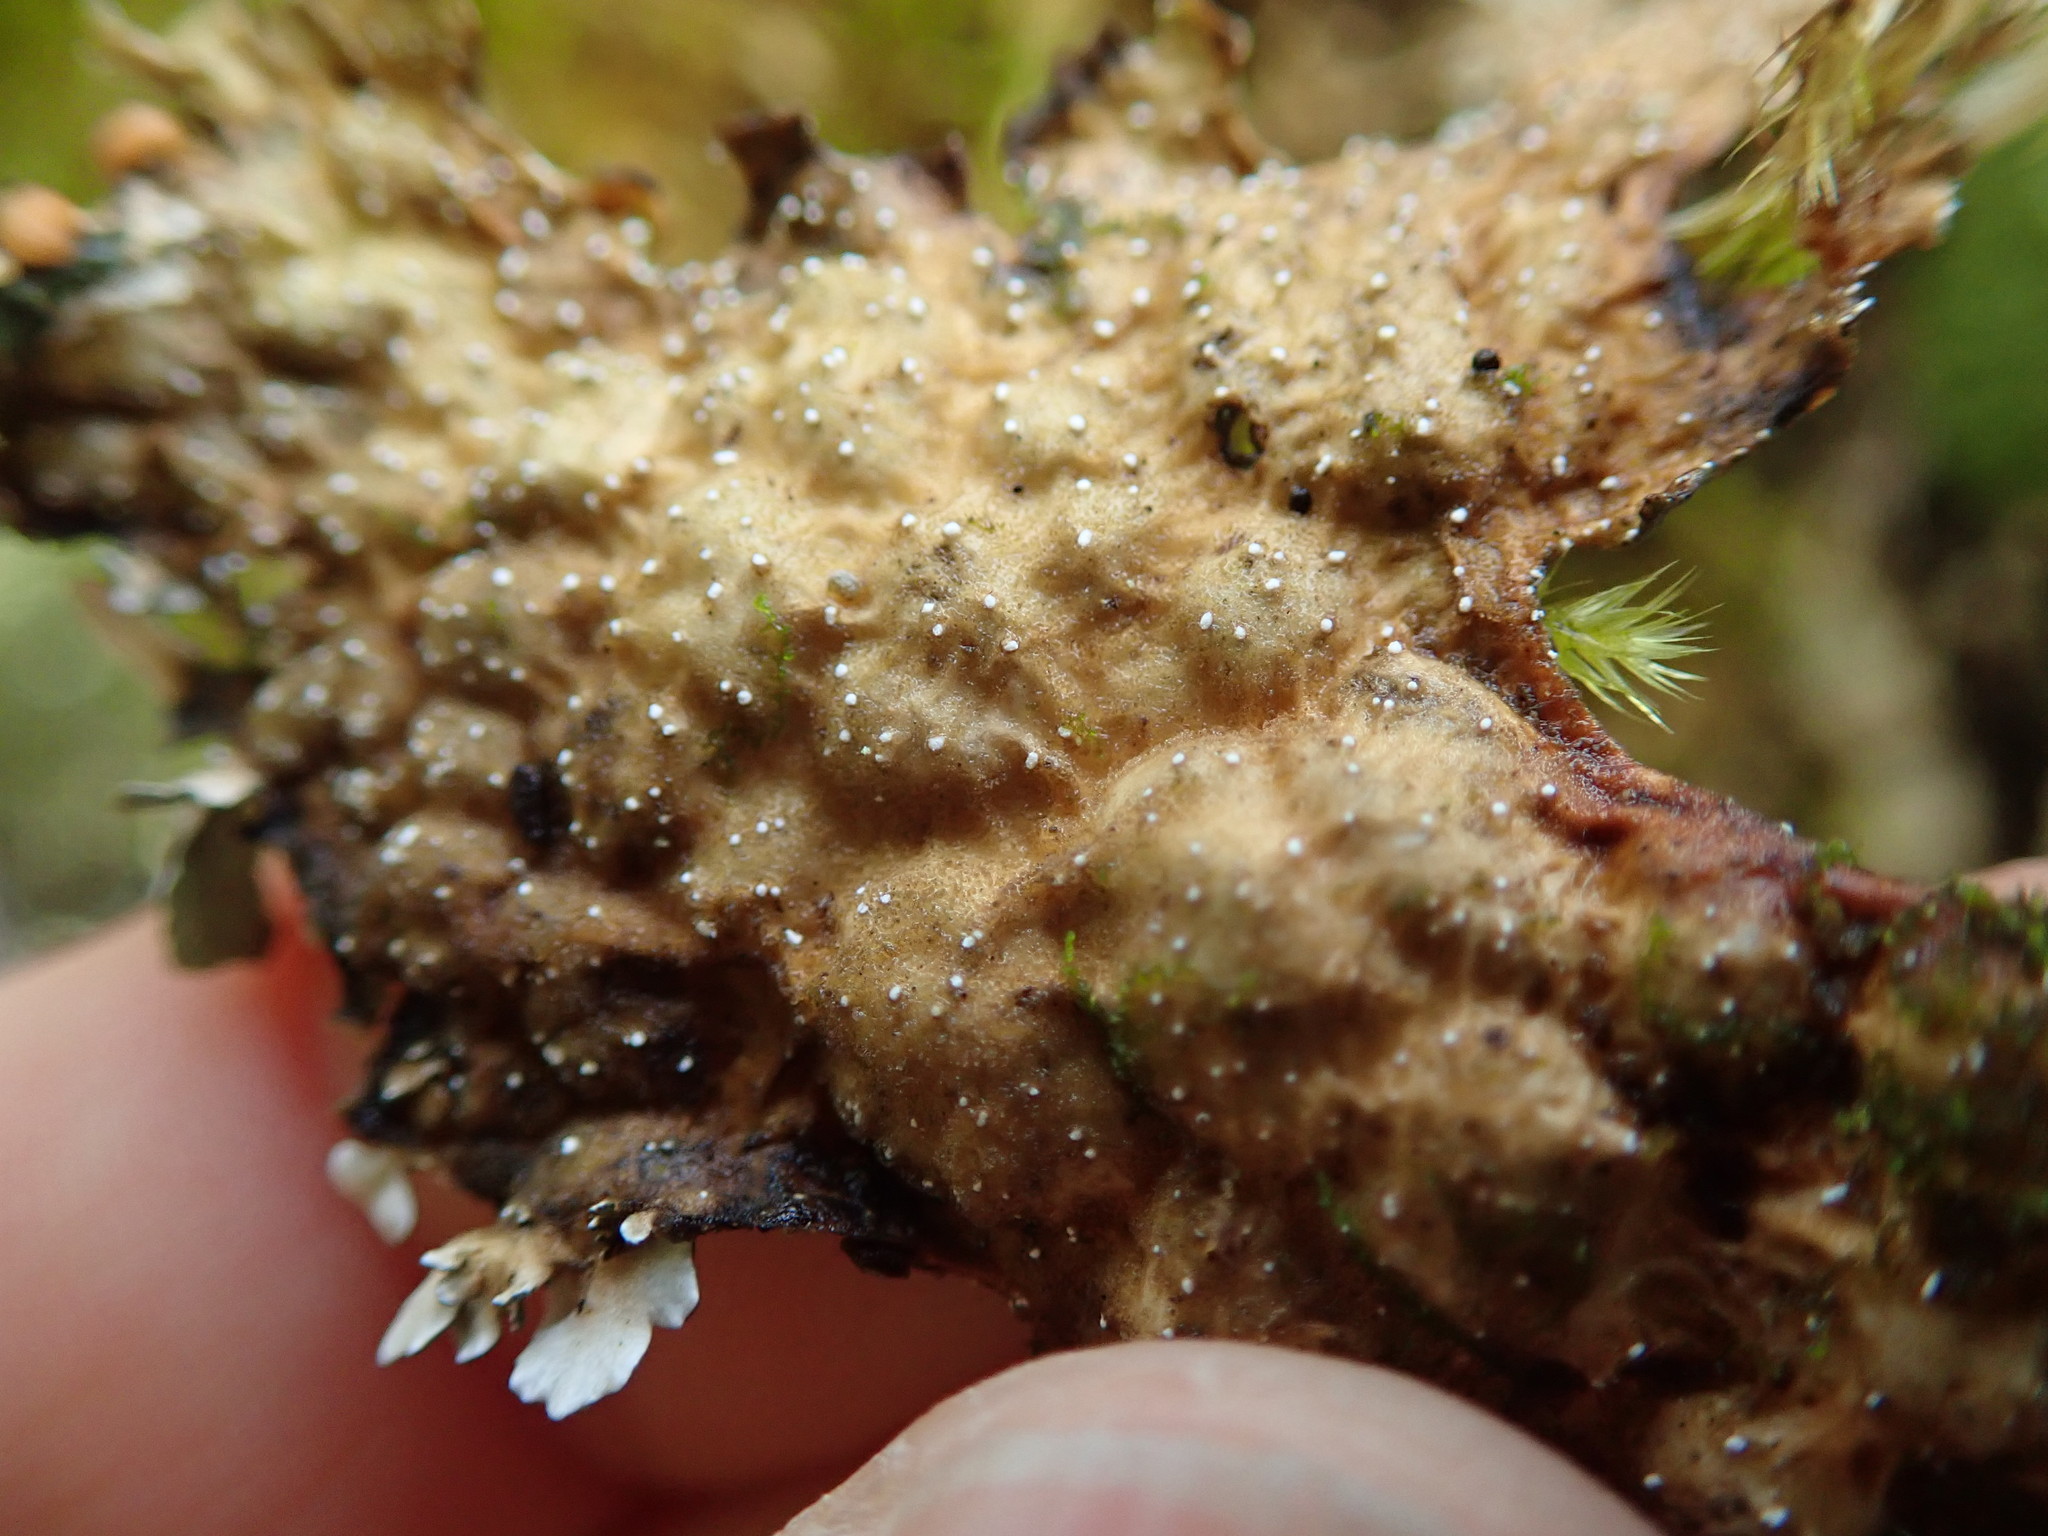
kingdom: Fungi
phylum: Ascomycota
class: Lecanoromycetes
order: Peltigerales
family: Lobariaceae
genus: Lobaria
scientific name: Lobaria anthraspis
